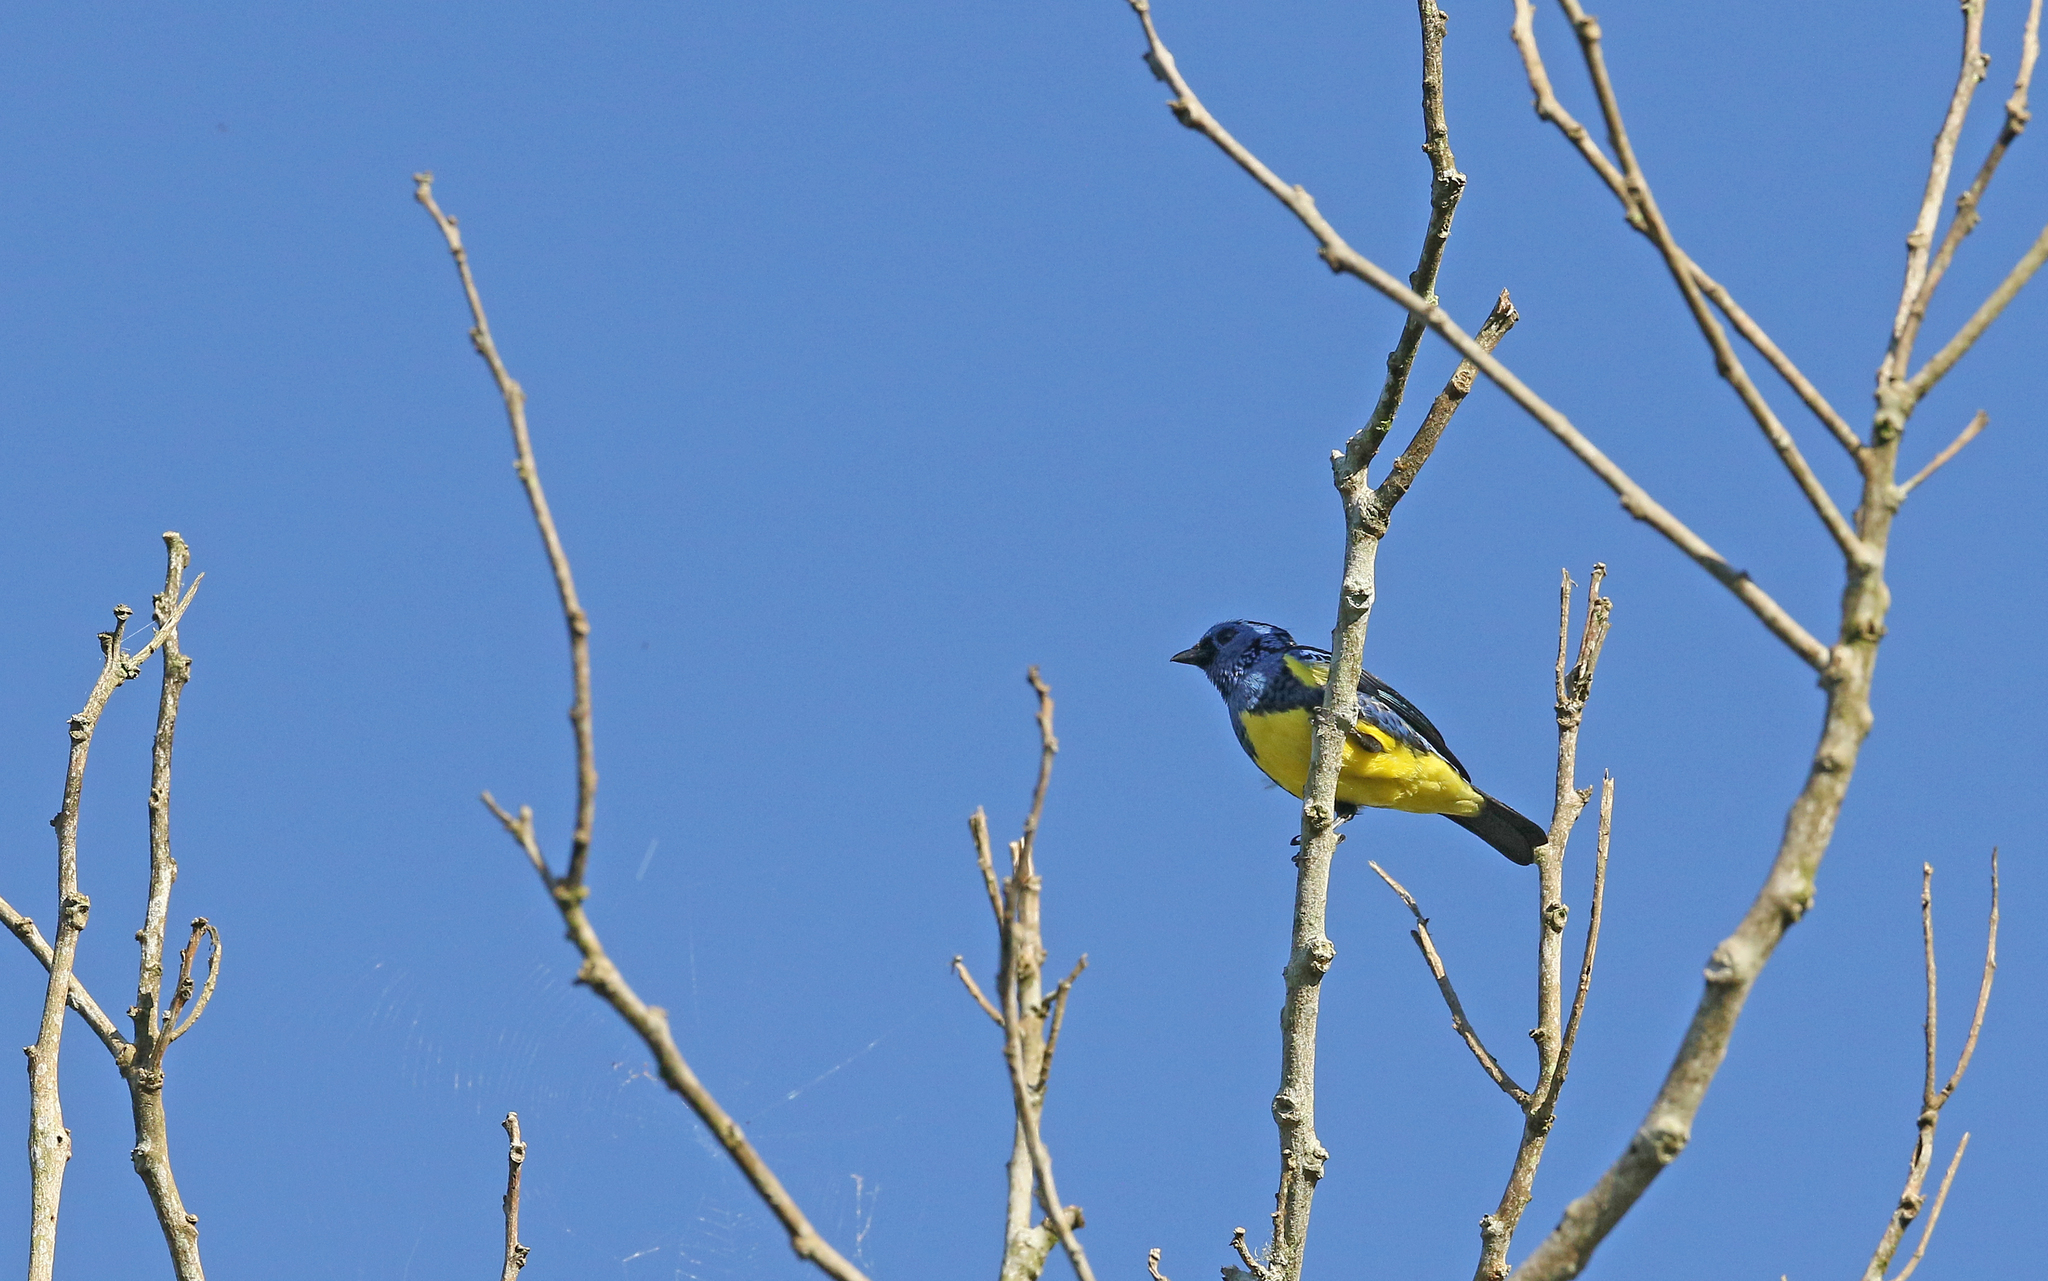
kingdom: Animalia
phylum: Chordata
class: Aves
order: Passeriformes
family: Thraupidae
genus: Tangara
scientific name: Tangara mexicana
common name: Turquoise tanager
